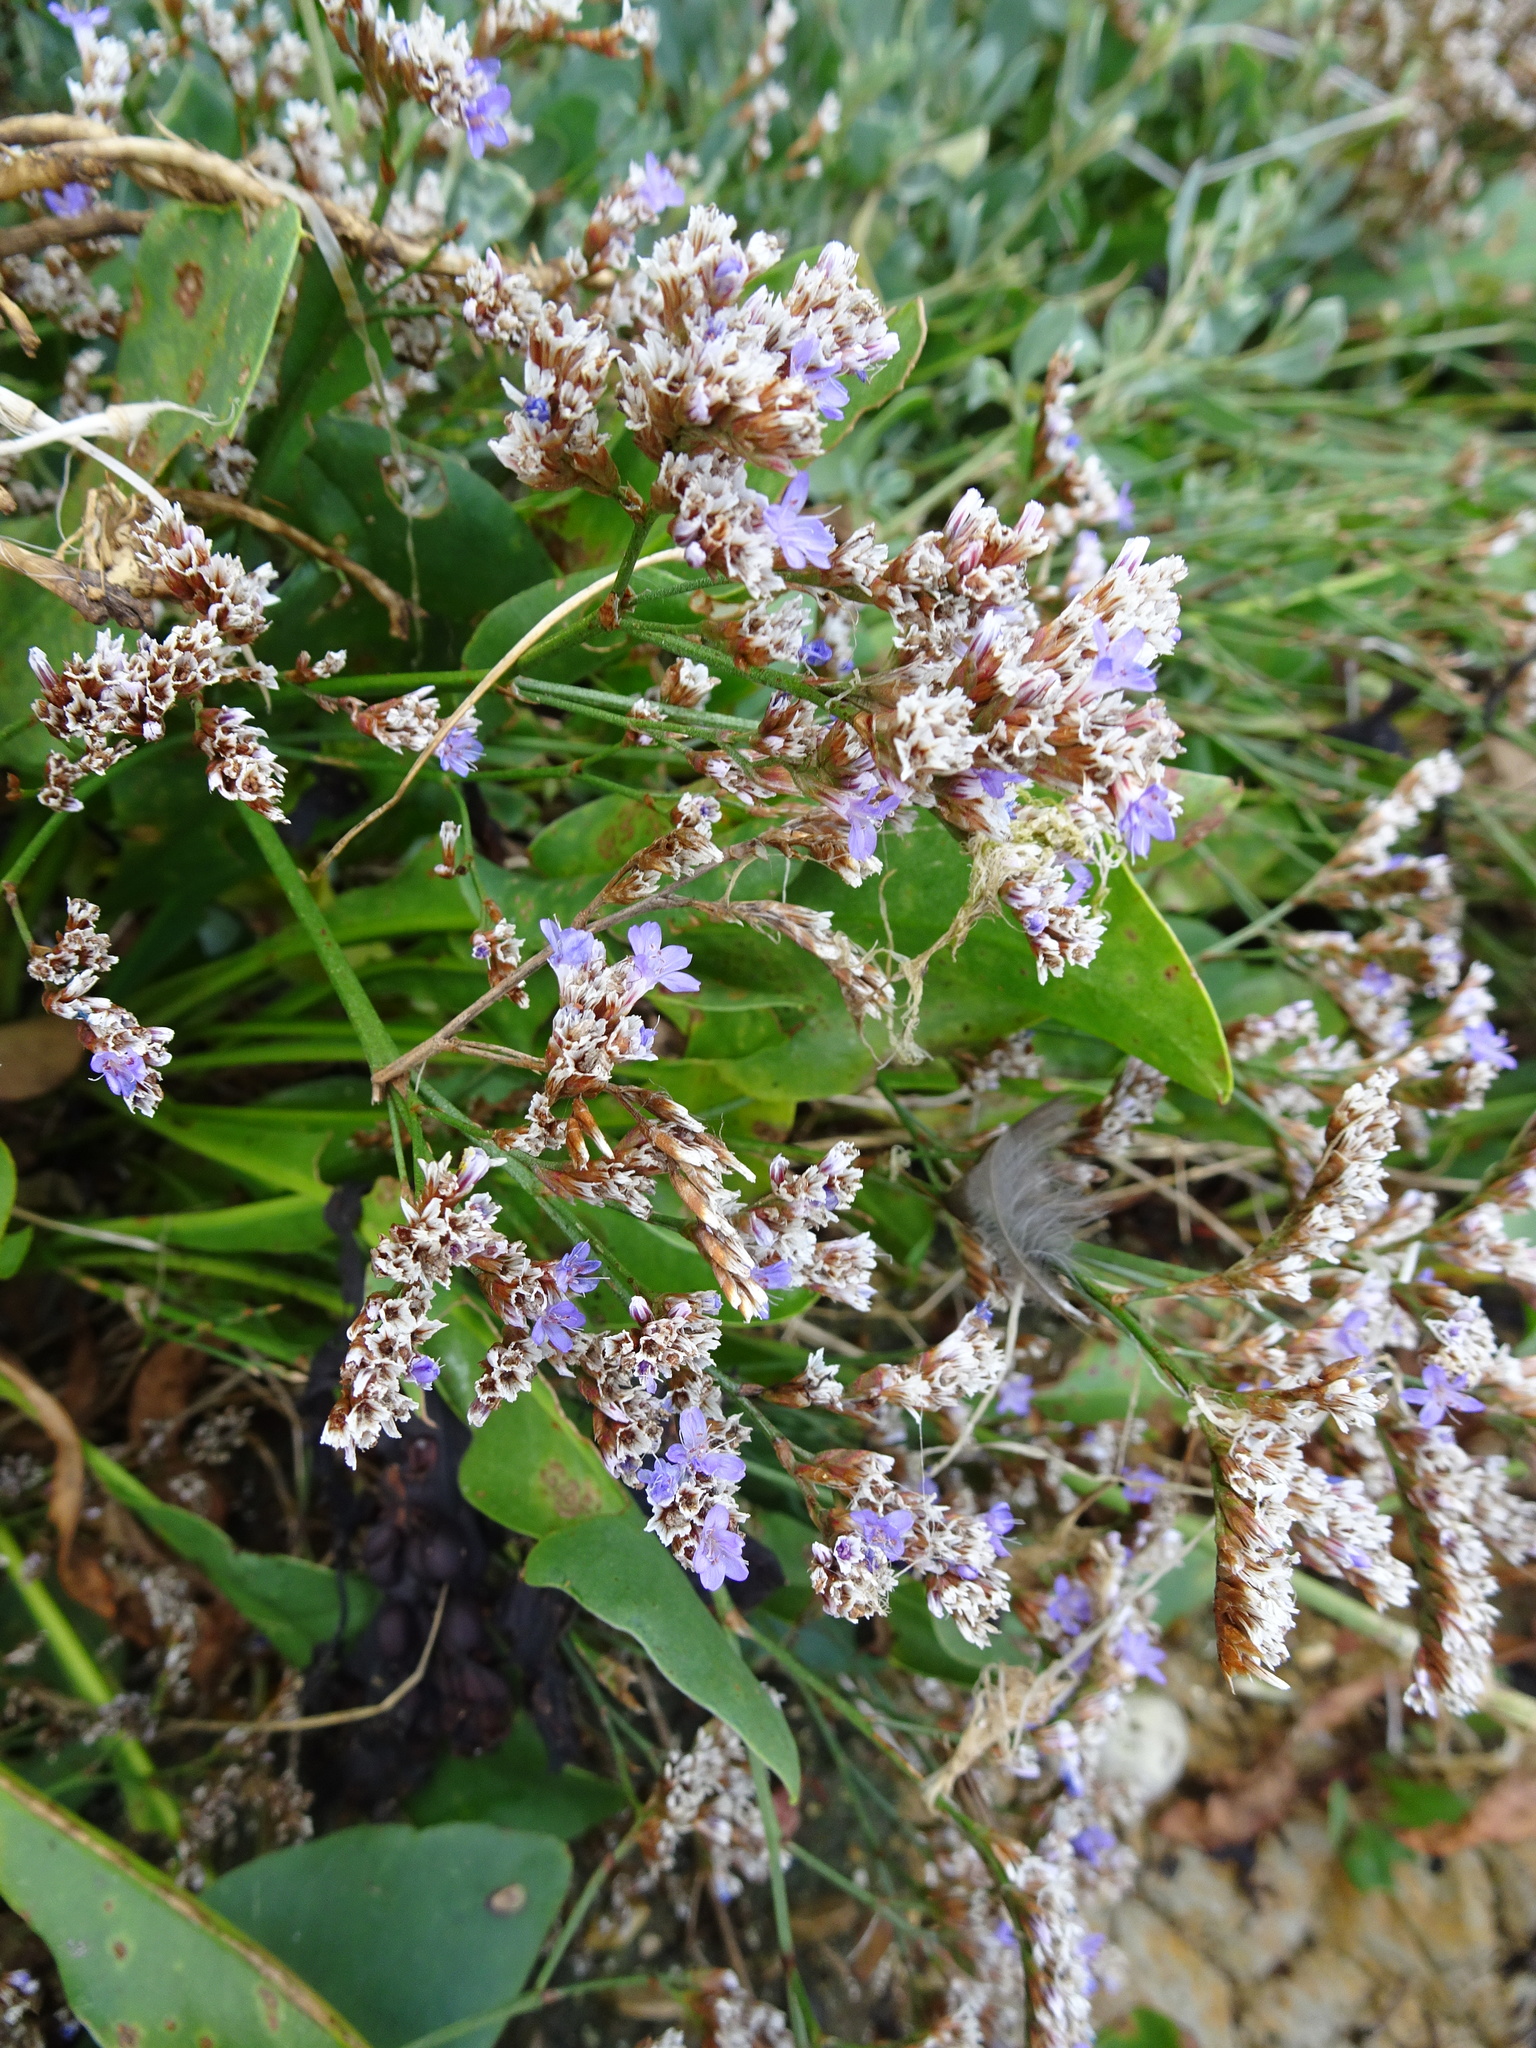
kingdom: Plantae
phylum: Tracheophyta
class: Magnoliopsida
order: Caryophyllales
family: Plumbaginaceae
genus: Limonium
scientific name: Limonium vulgare
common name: Common sea-lavender
